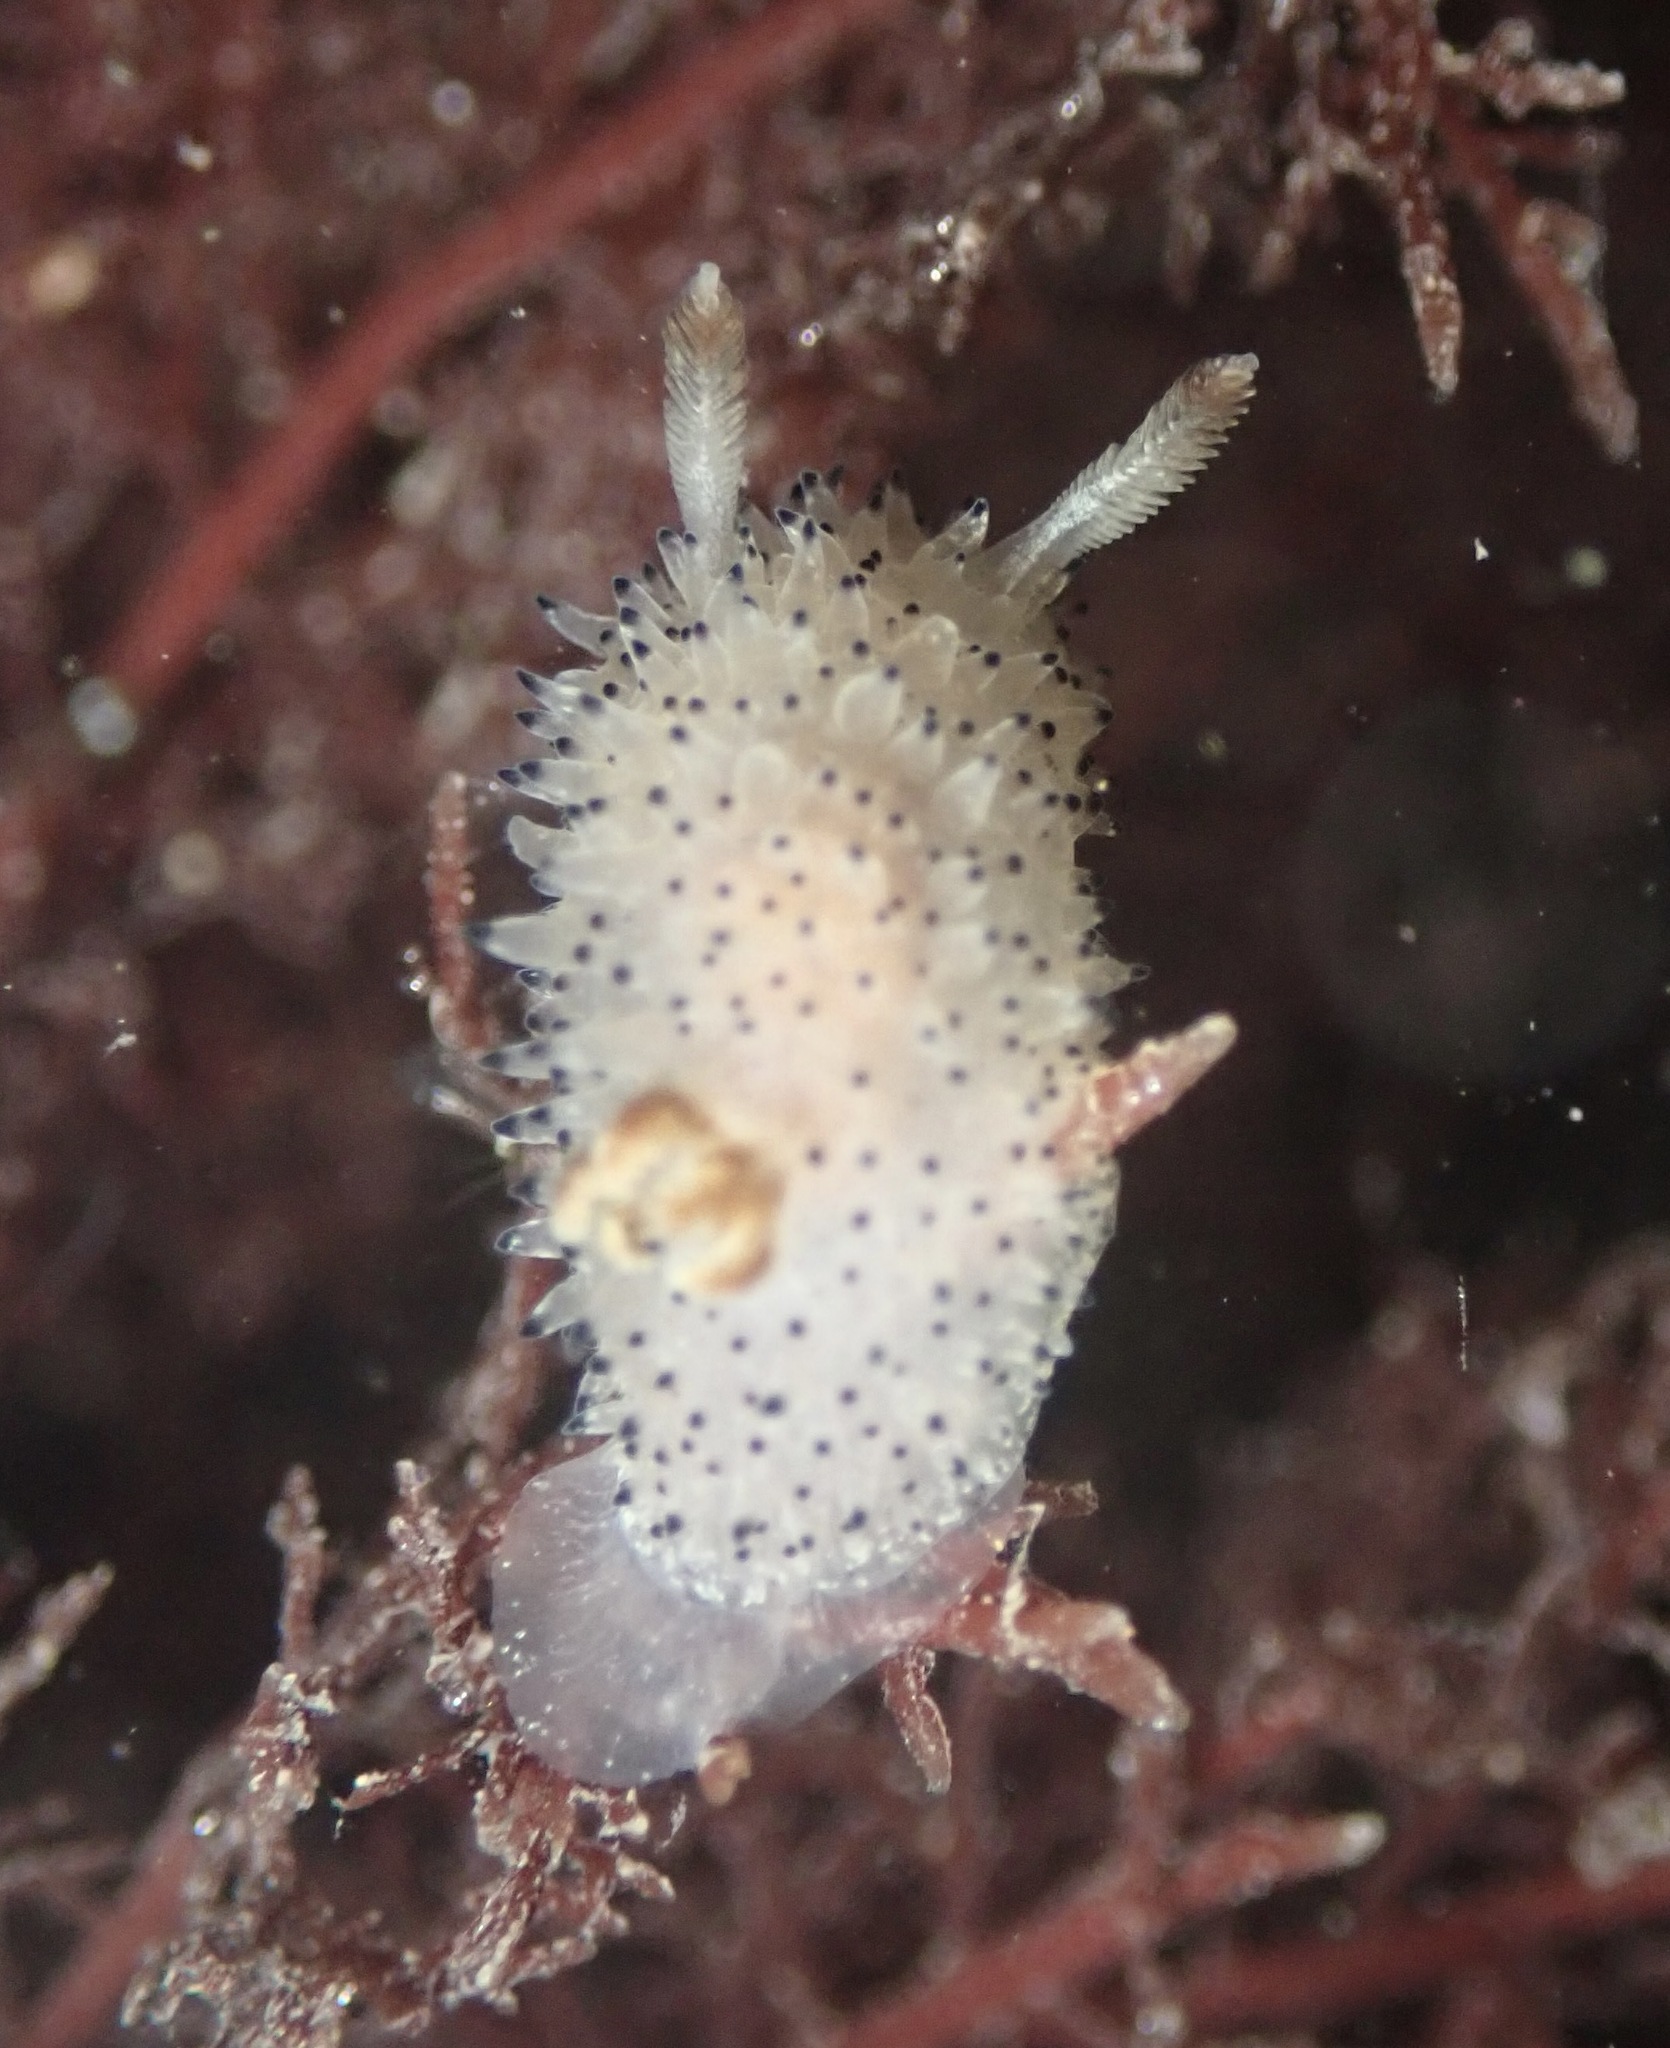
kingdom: Animalia
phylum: Mollusca
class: Gastropoda
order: Nudibranchia
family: Onchidorididae
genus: Acanthodoris
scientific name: Acanthodoris rhodoceras
